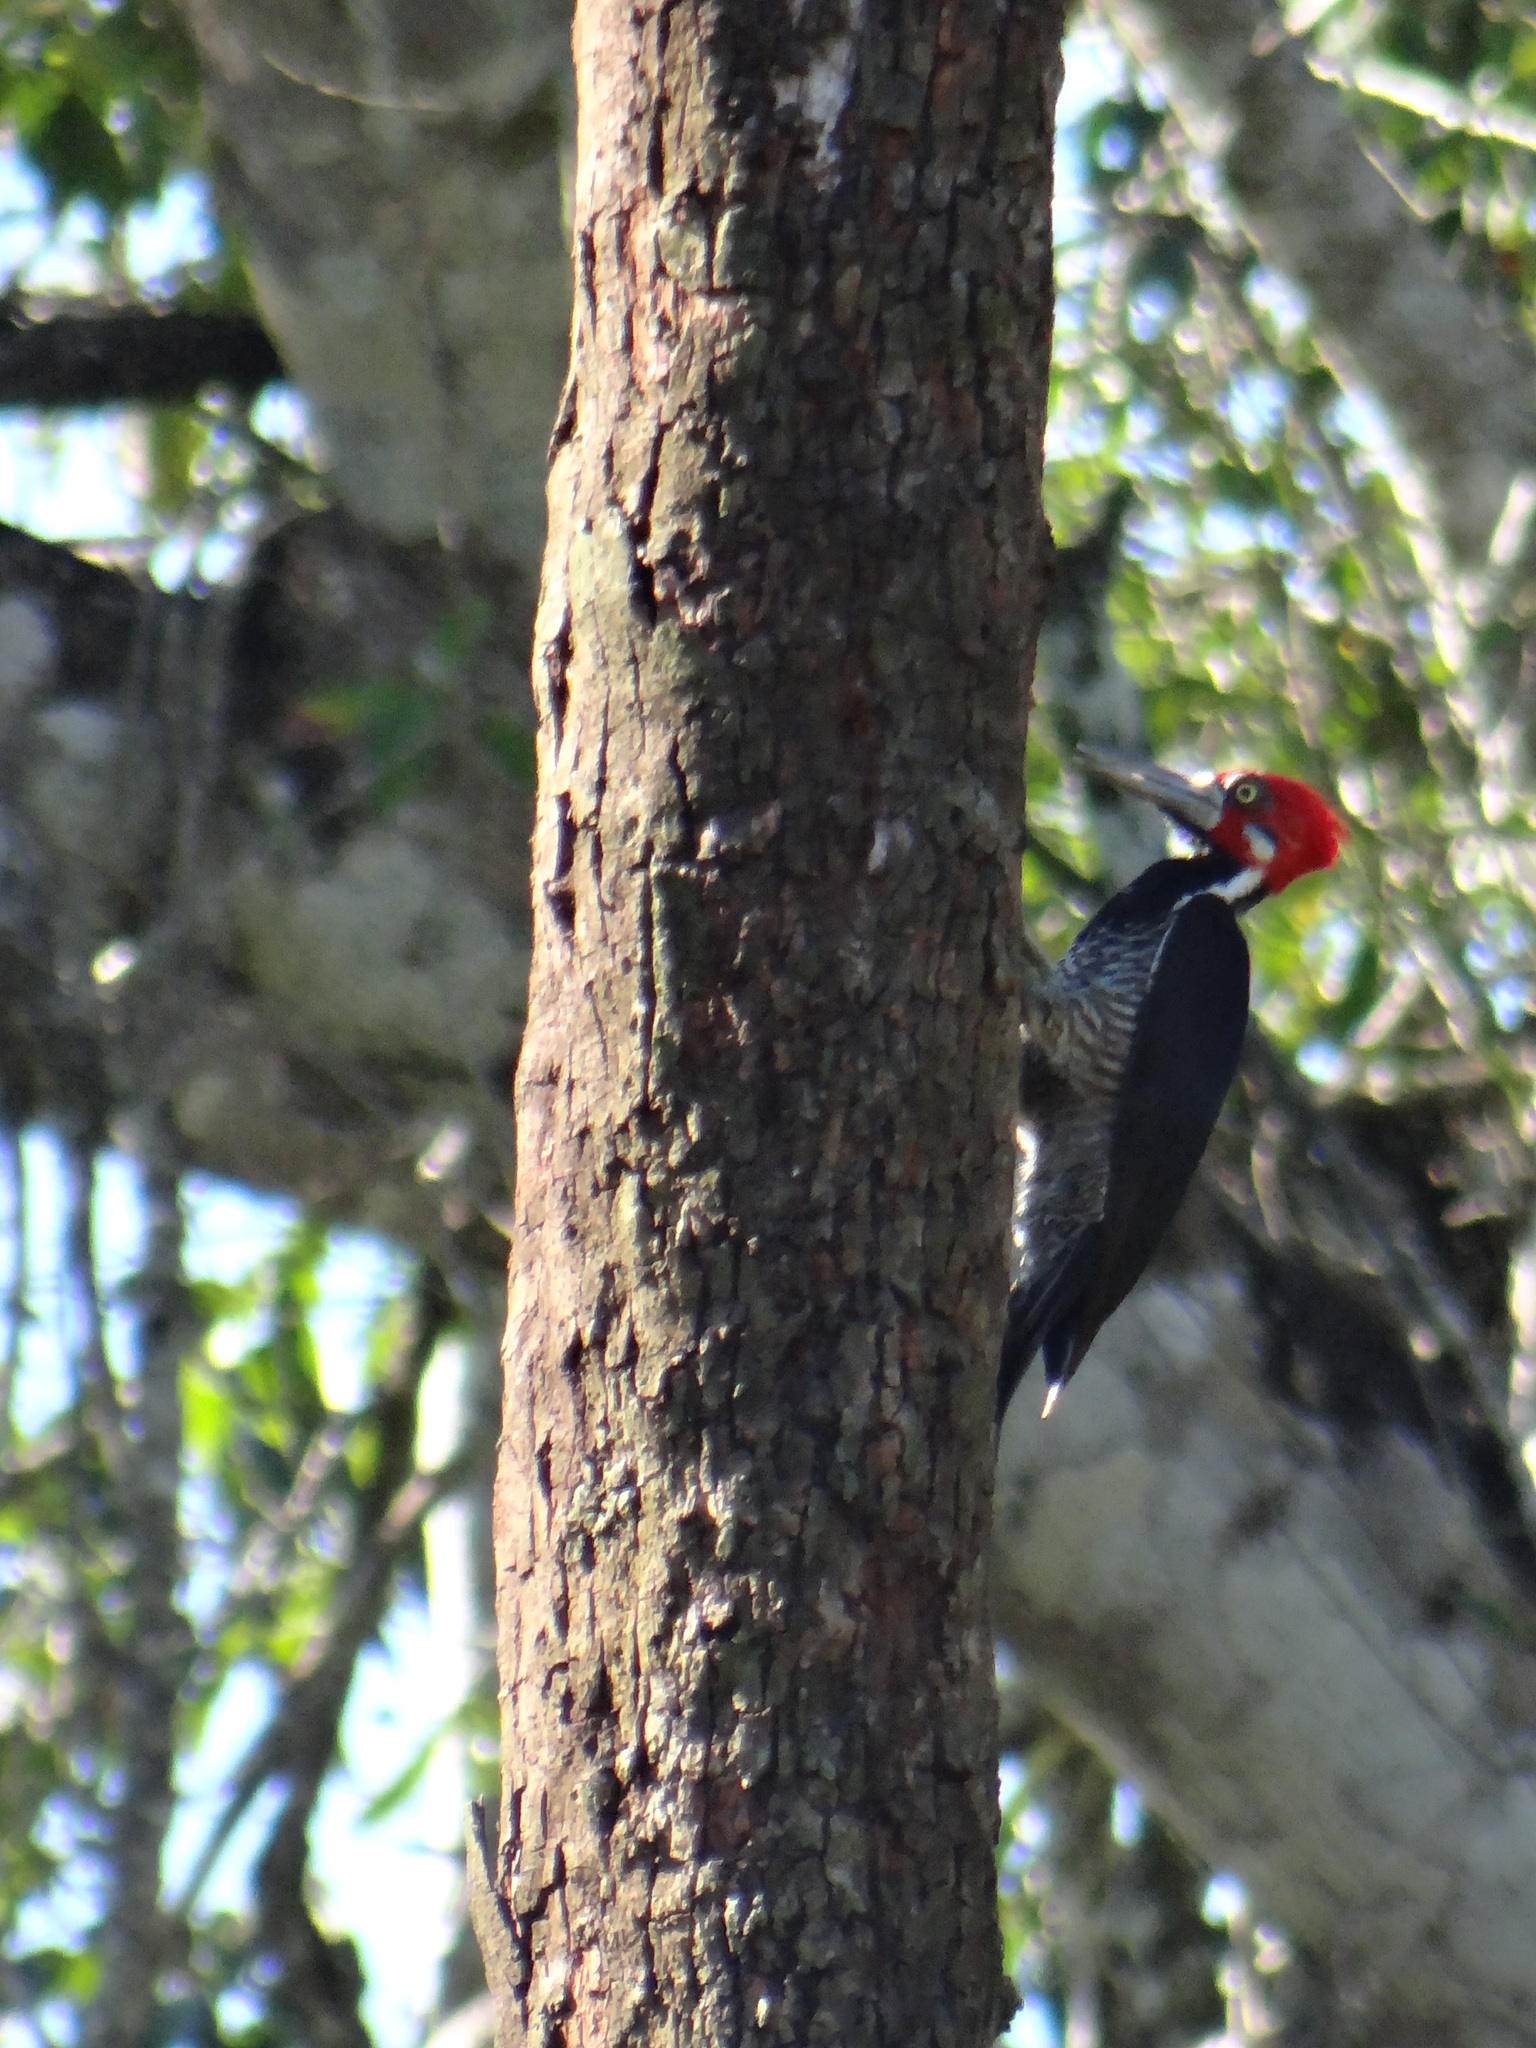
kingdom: Animalia
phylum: Chordata
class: Aves
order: Piciformes
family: Picidae
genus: Campephilus
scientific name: Campephilus melanoleucos
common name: Crimson-crested woodpecker
